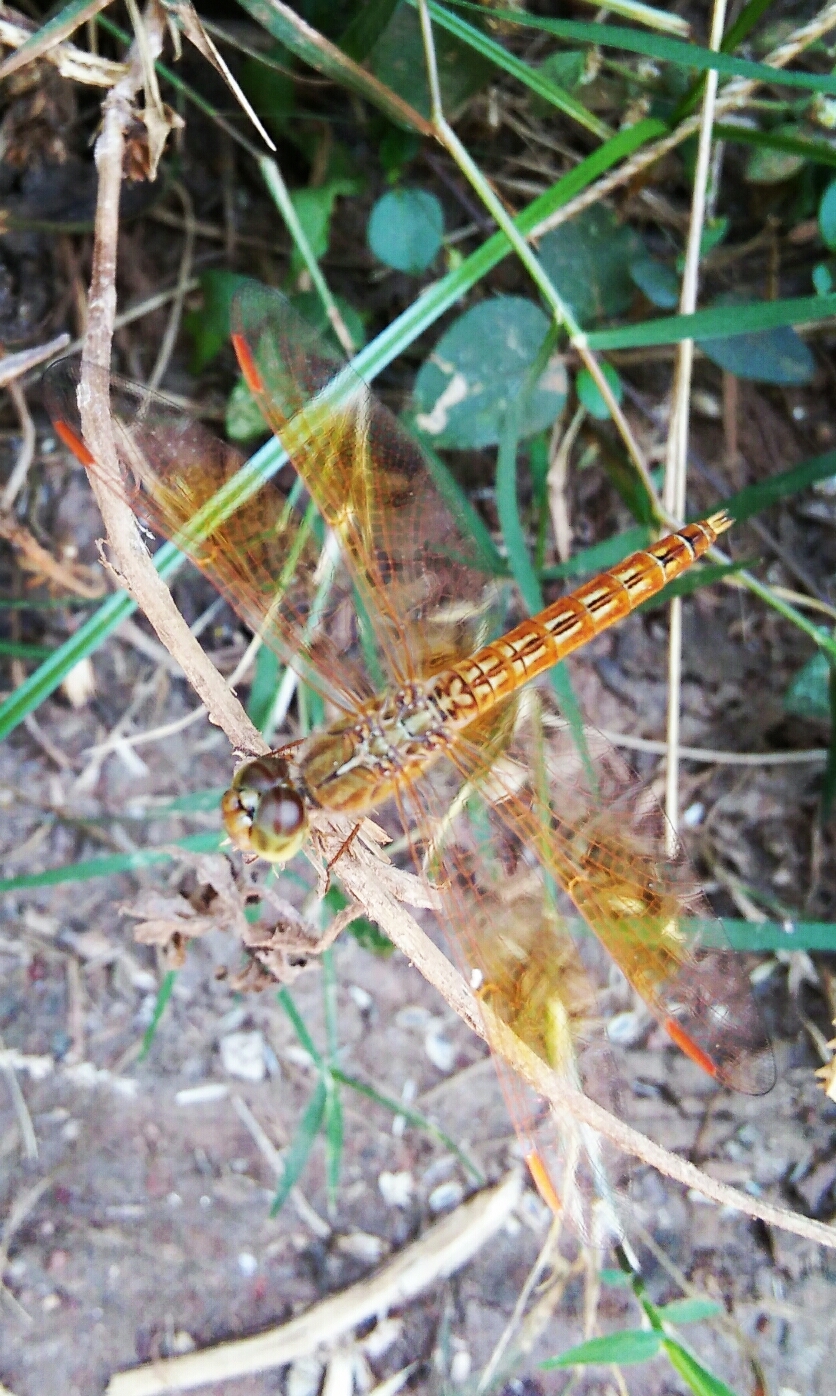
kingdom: Animalia
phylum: Arthropoda
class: Insecta
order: Odonata
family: Libellulidae
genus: Brachythemis
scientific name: Brachythemis contaminata
